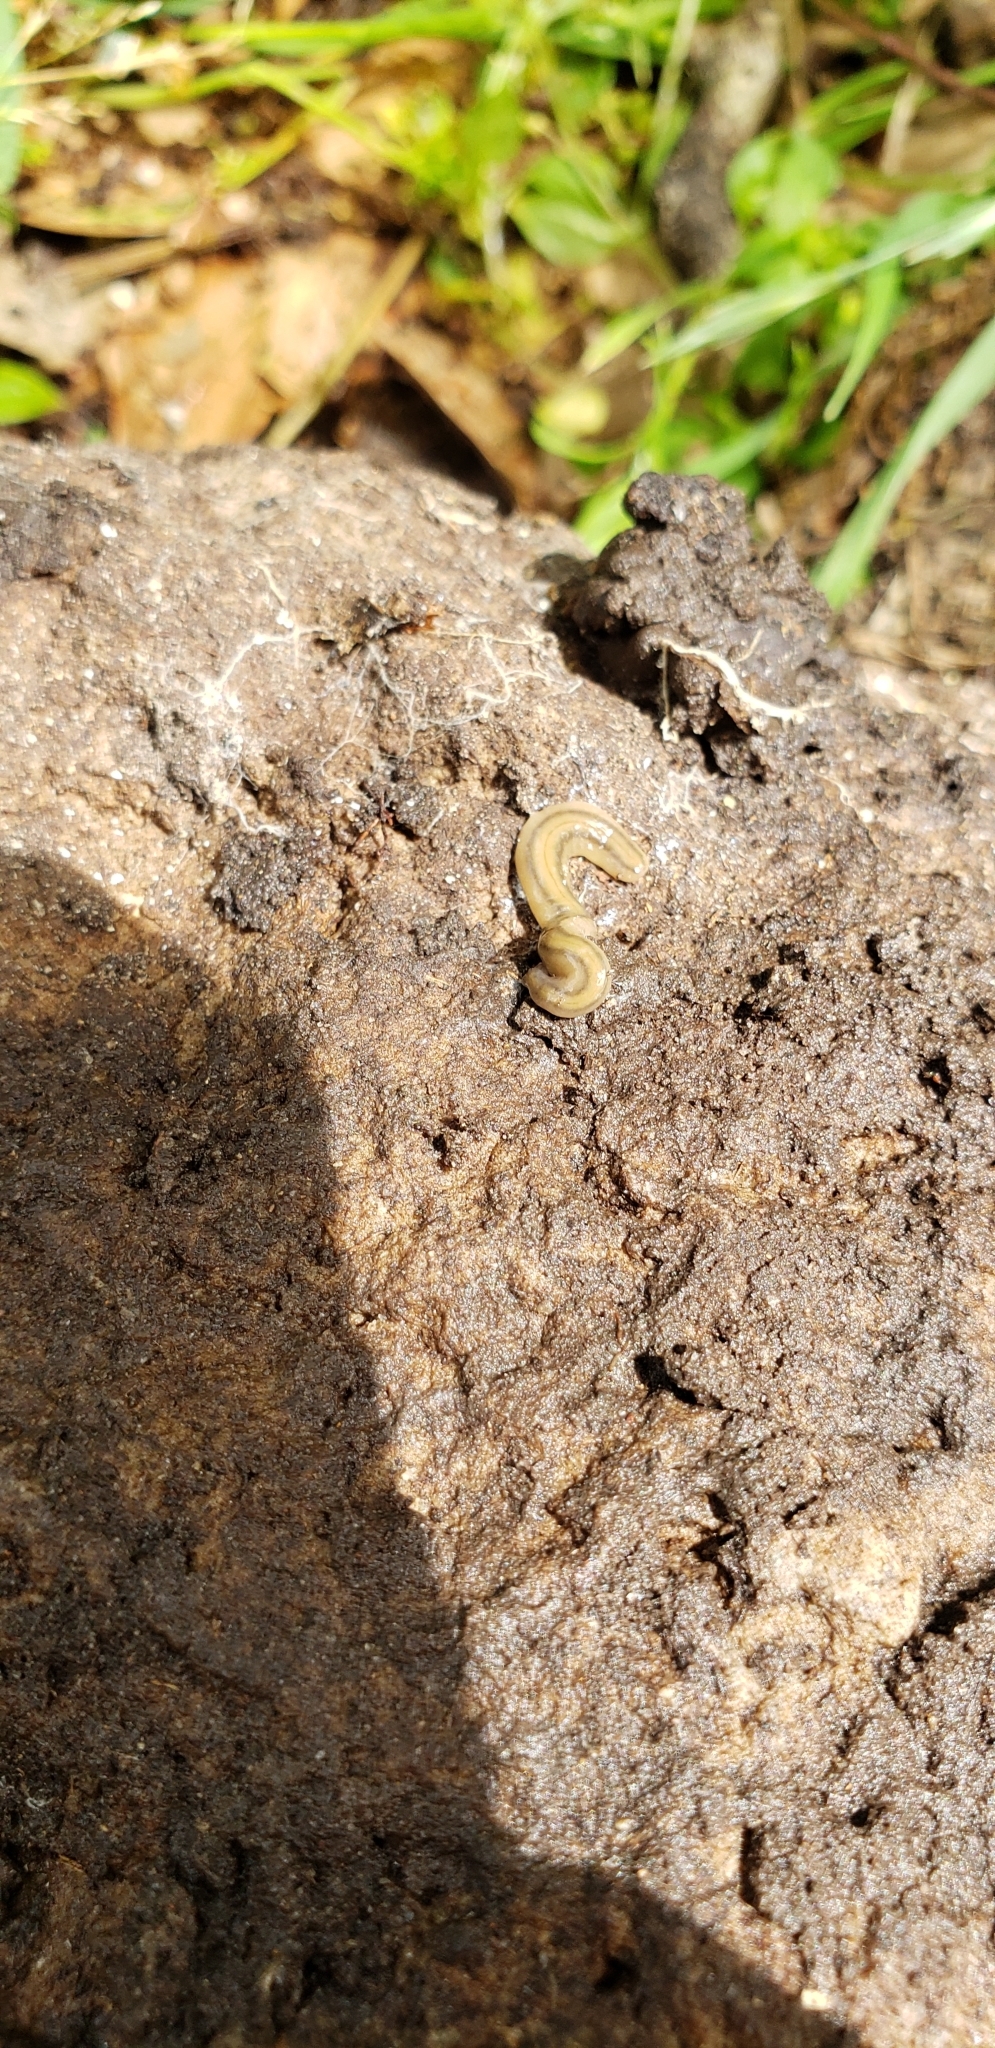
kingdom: Animalia
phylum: Platyhelminthes
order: Tricladida
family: Geoplanidae
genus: Bipalium
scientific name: Bipalium kewense
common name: Hammerhead flatworm
